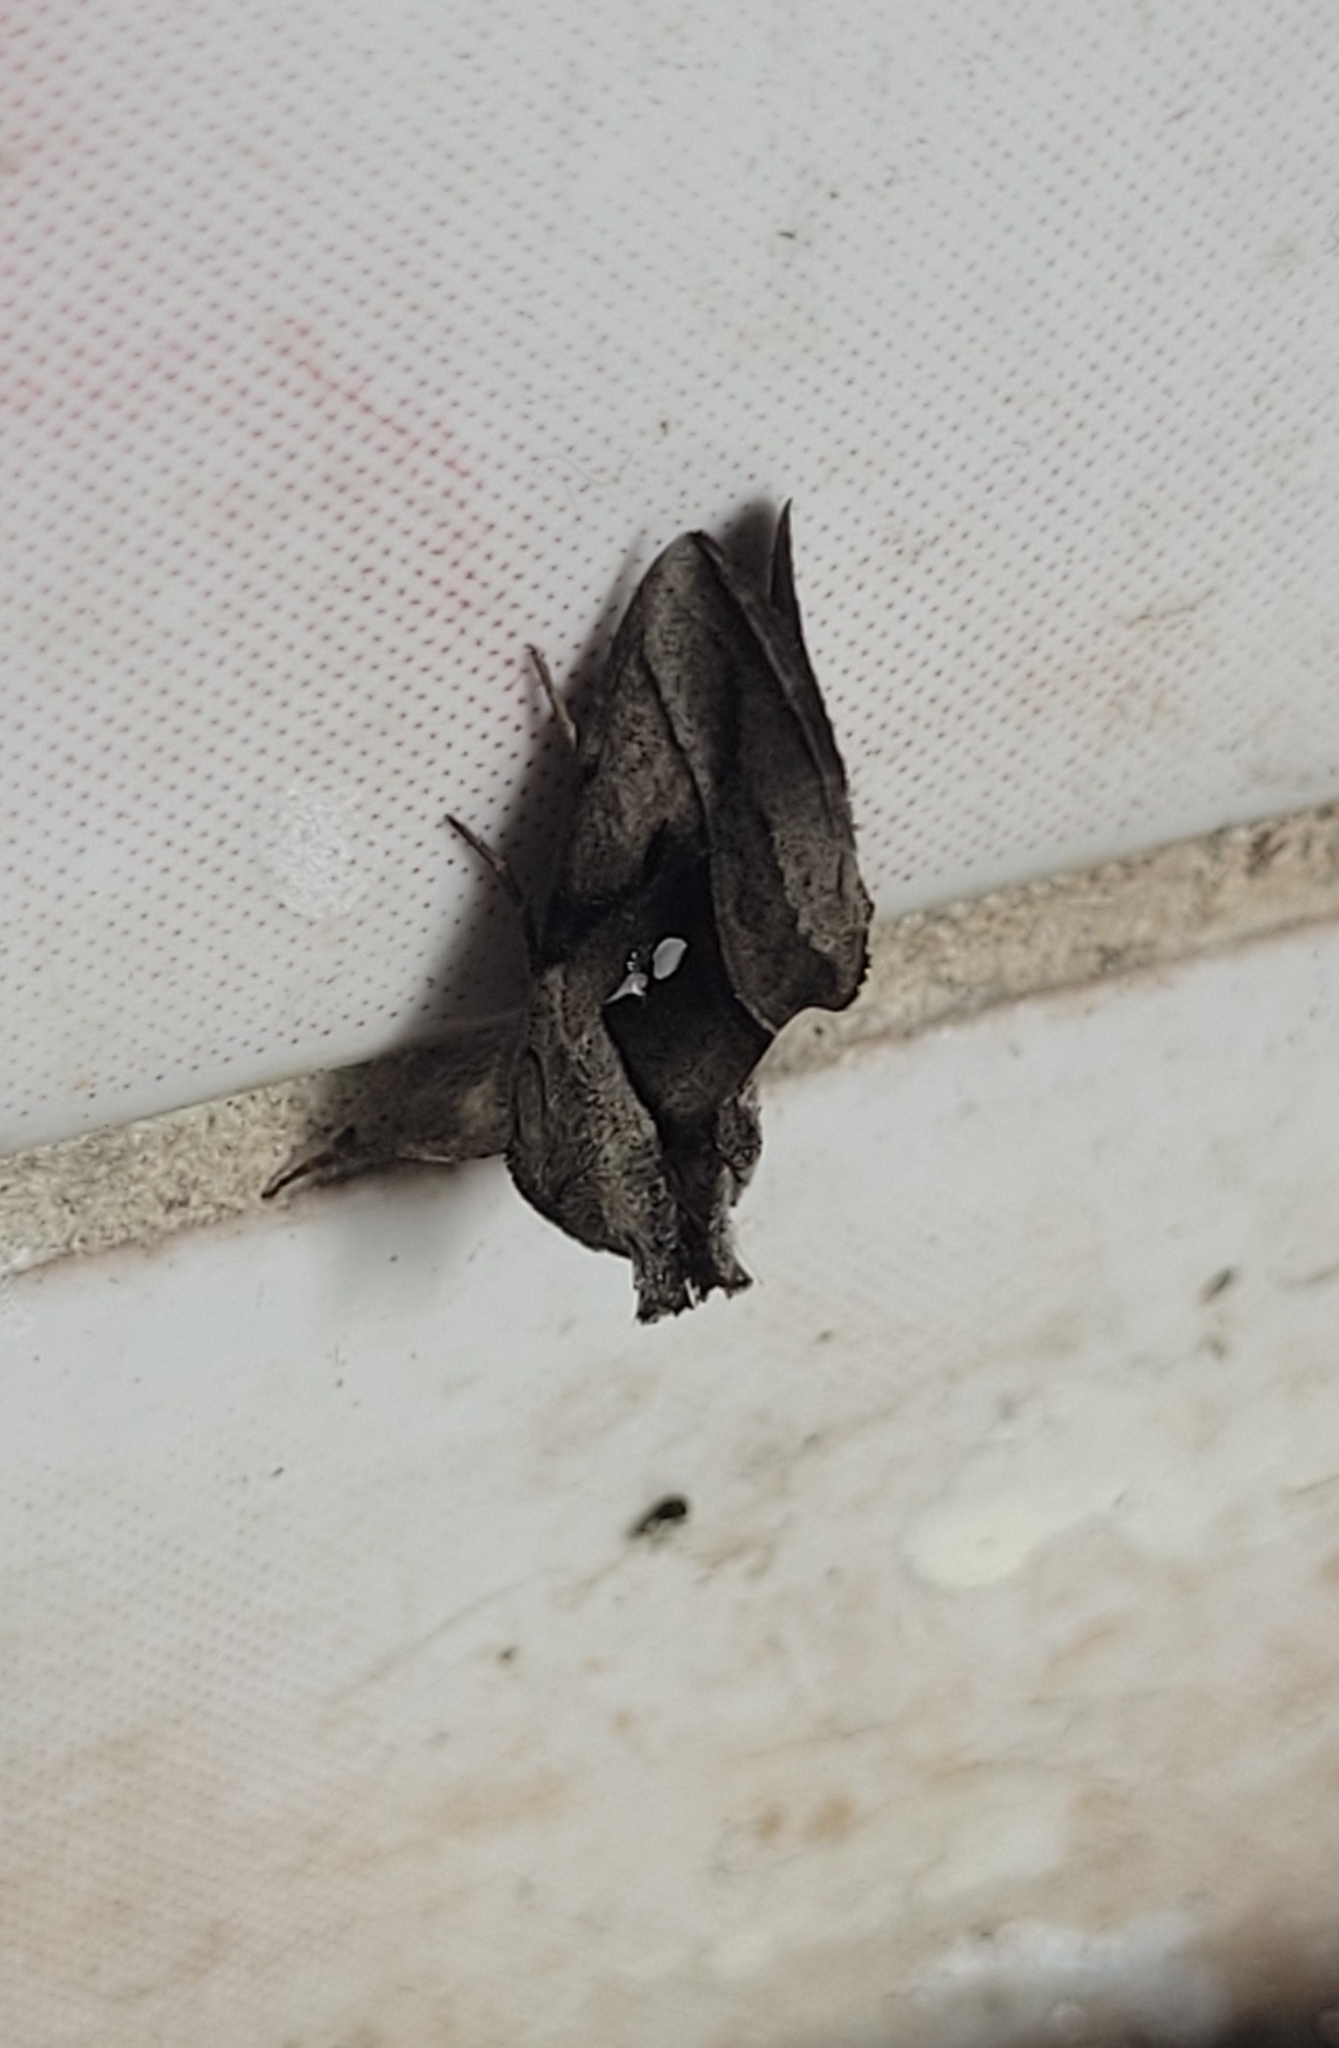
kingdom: Animalia
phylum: Arthropoda
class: Insecta
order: Lepidoptera
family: Noctuidae
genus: Macdunnoughia
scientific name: Macdunnoughia purissima
